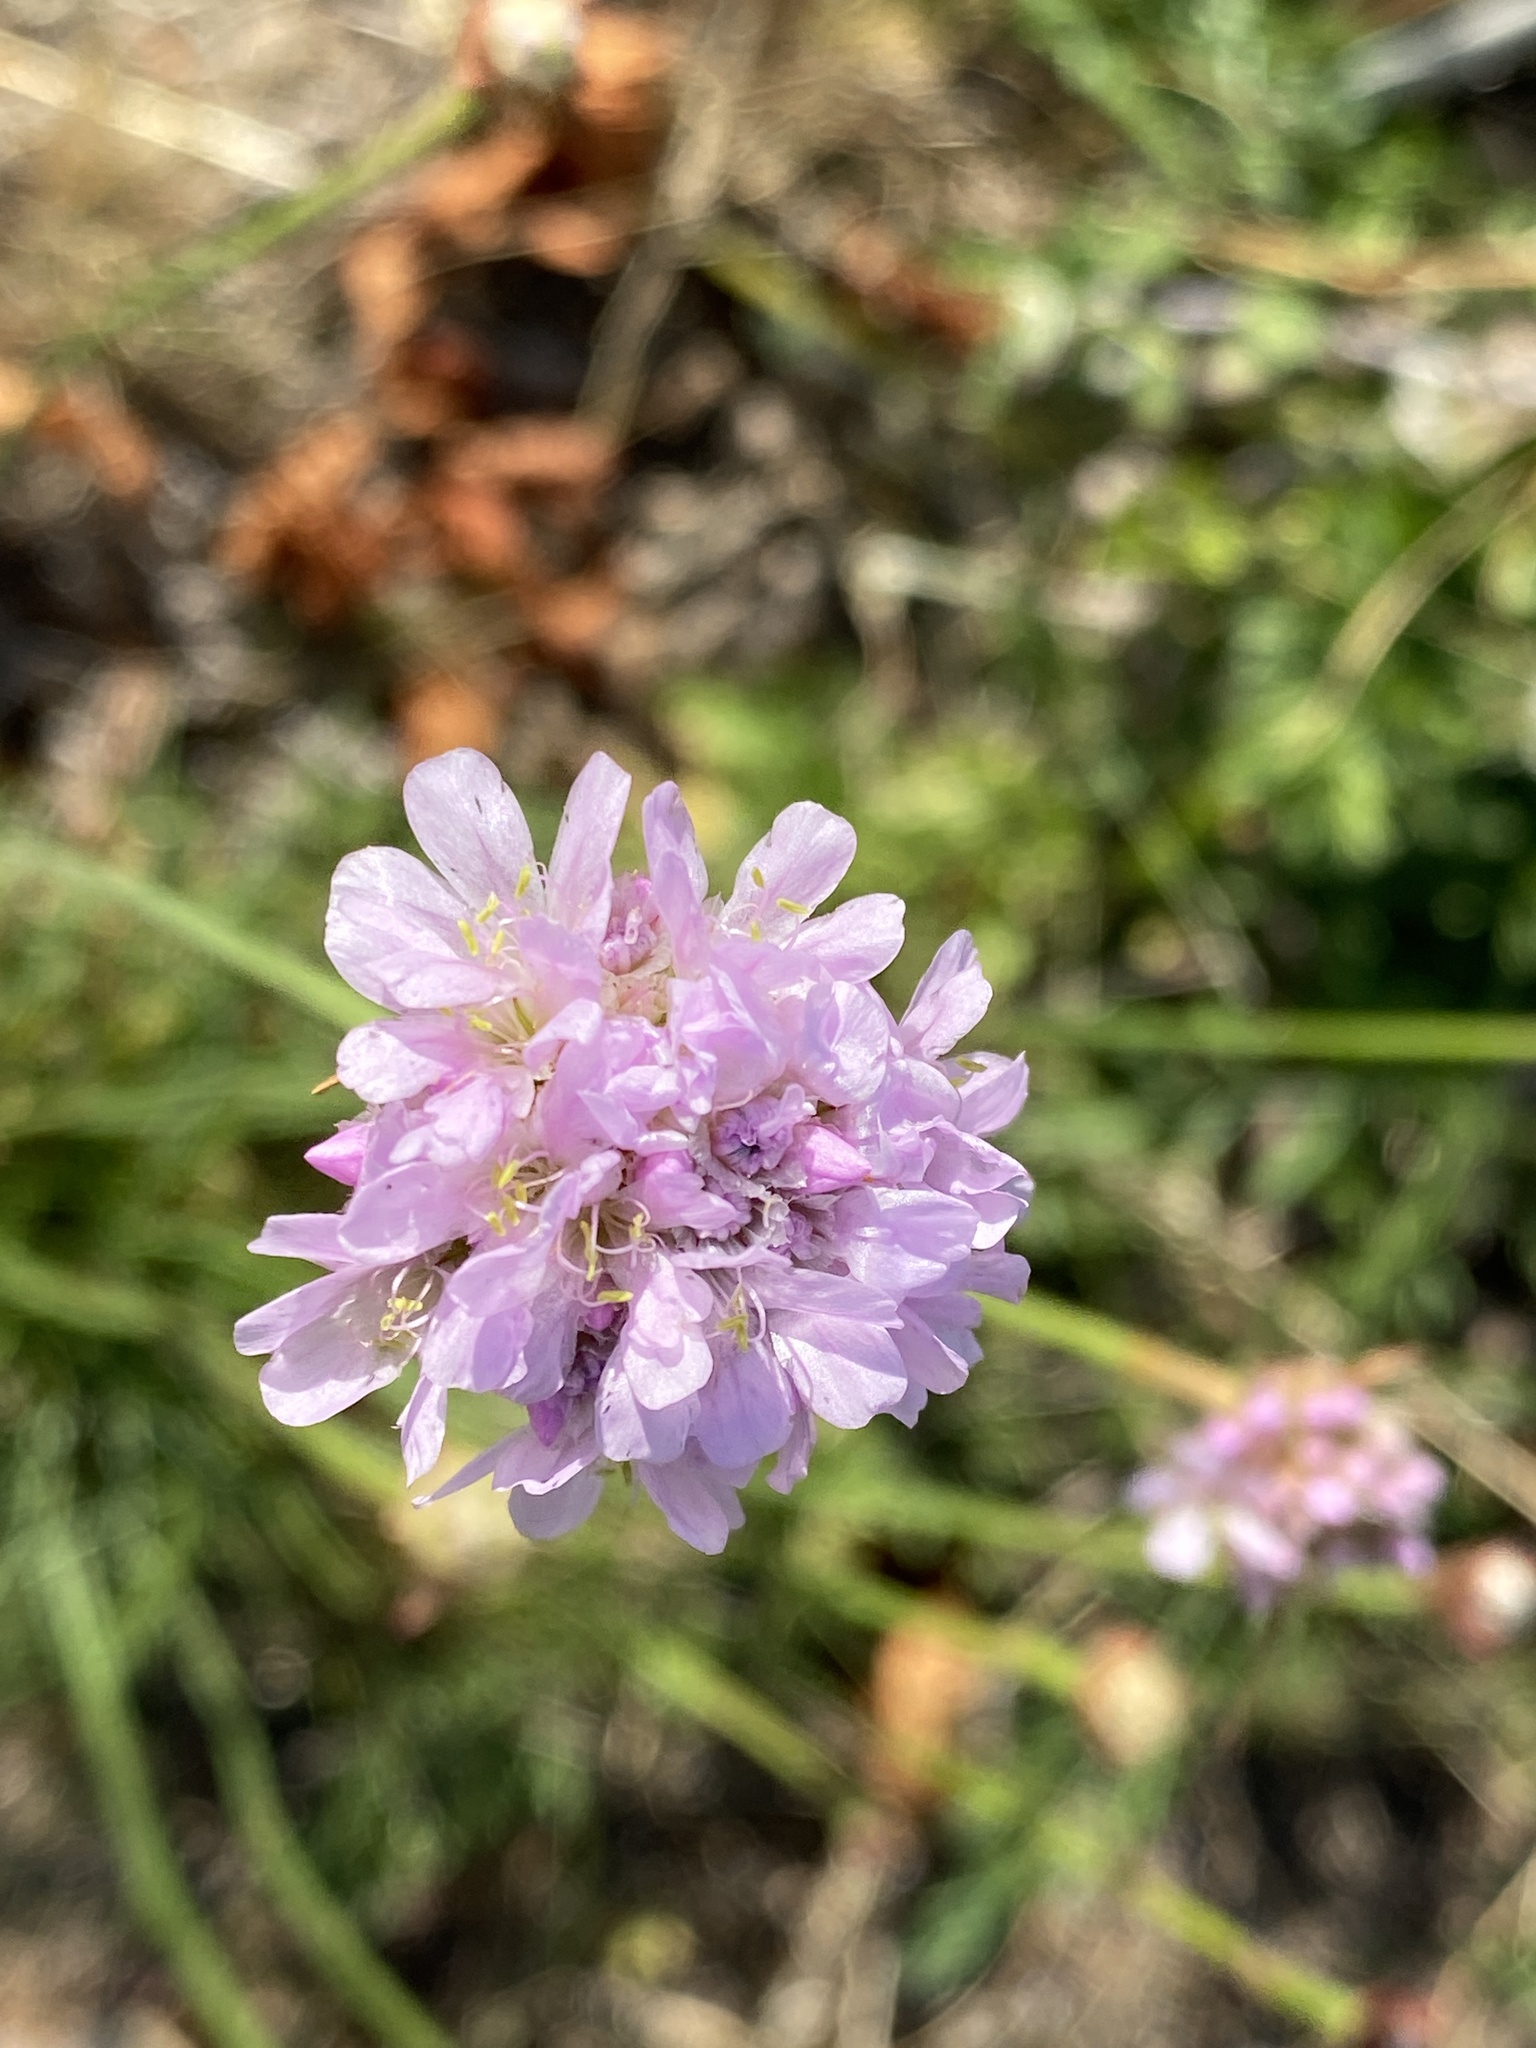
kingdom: Plantae
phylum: Tracheophyta
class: Magnoliopsida
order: Caryophyllales
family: Plumbaginaceae
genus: Armeria
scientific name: Armeria maritima
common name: Thrift
